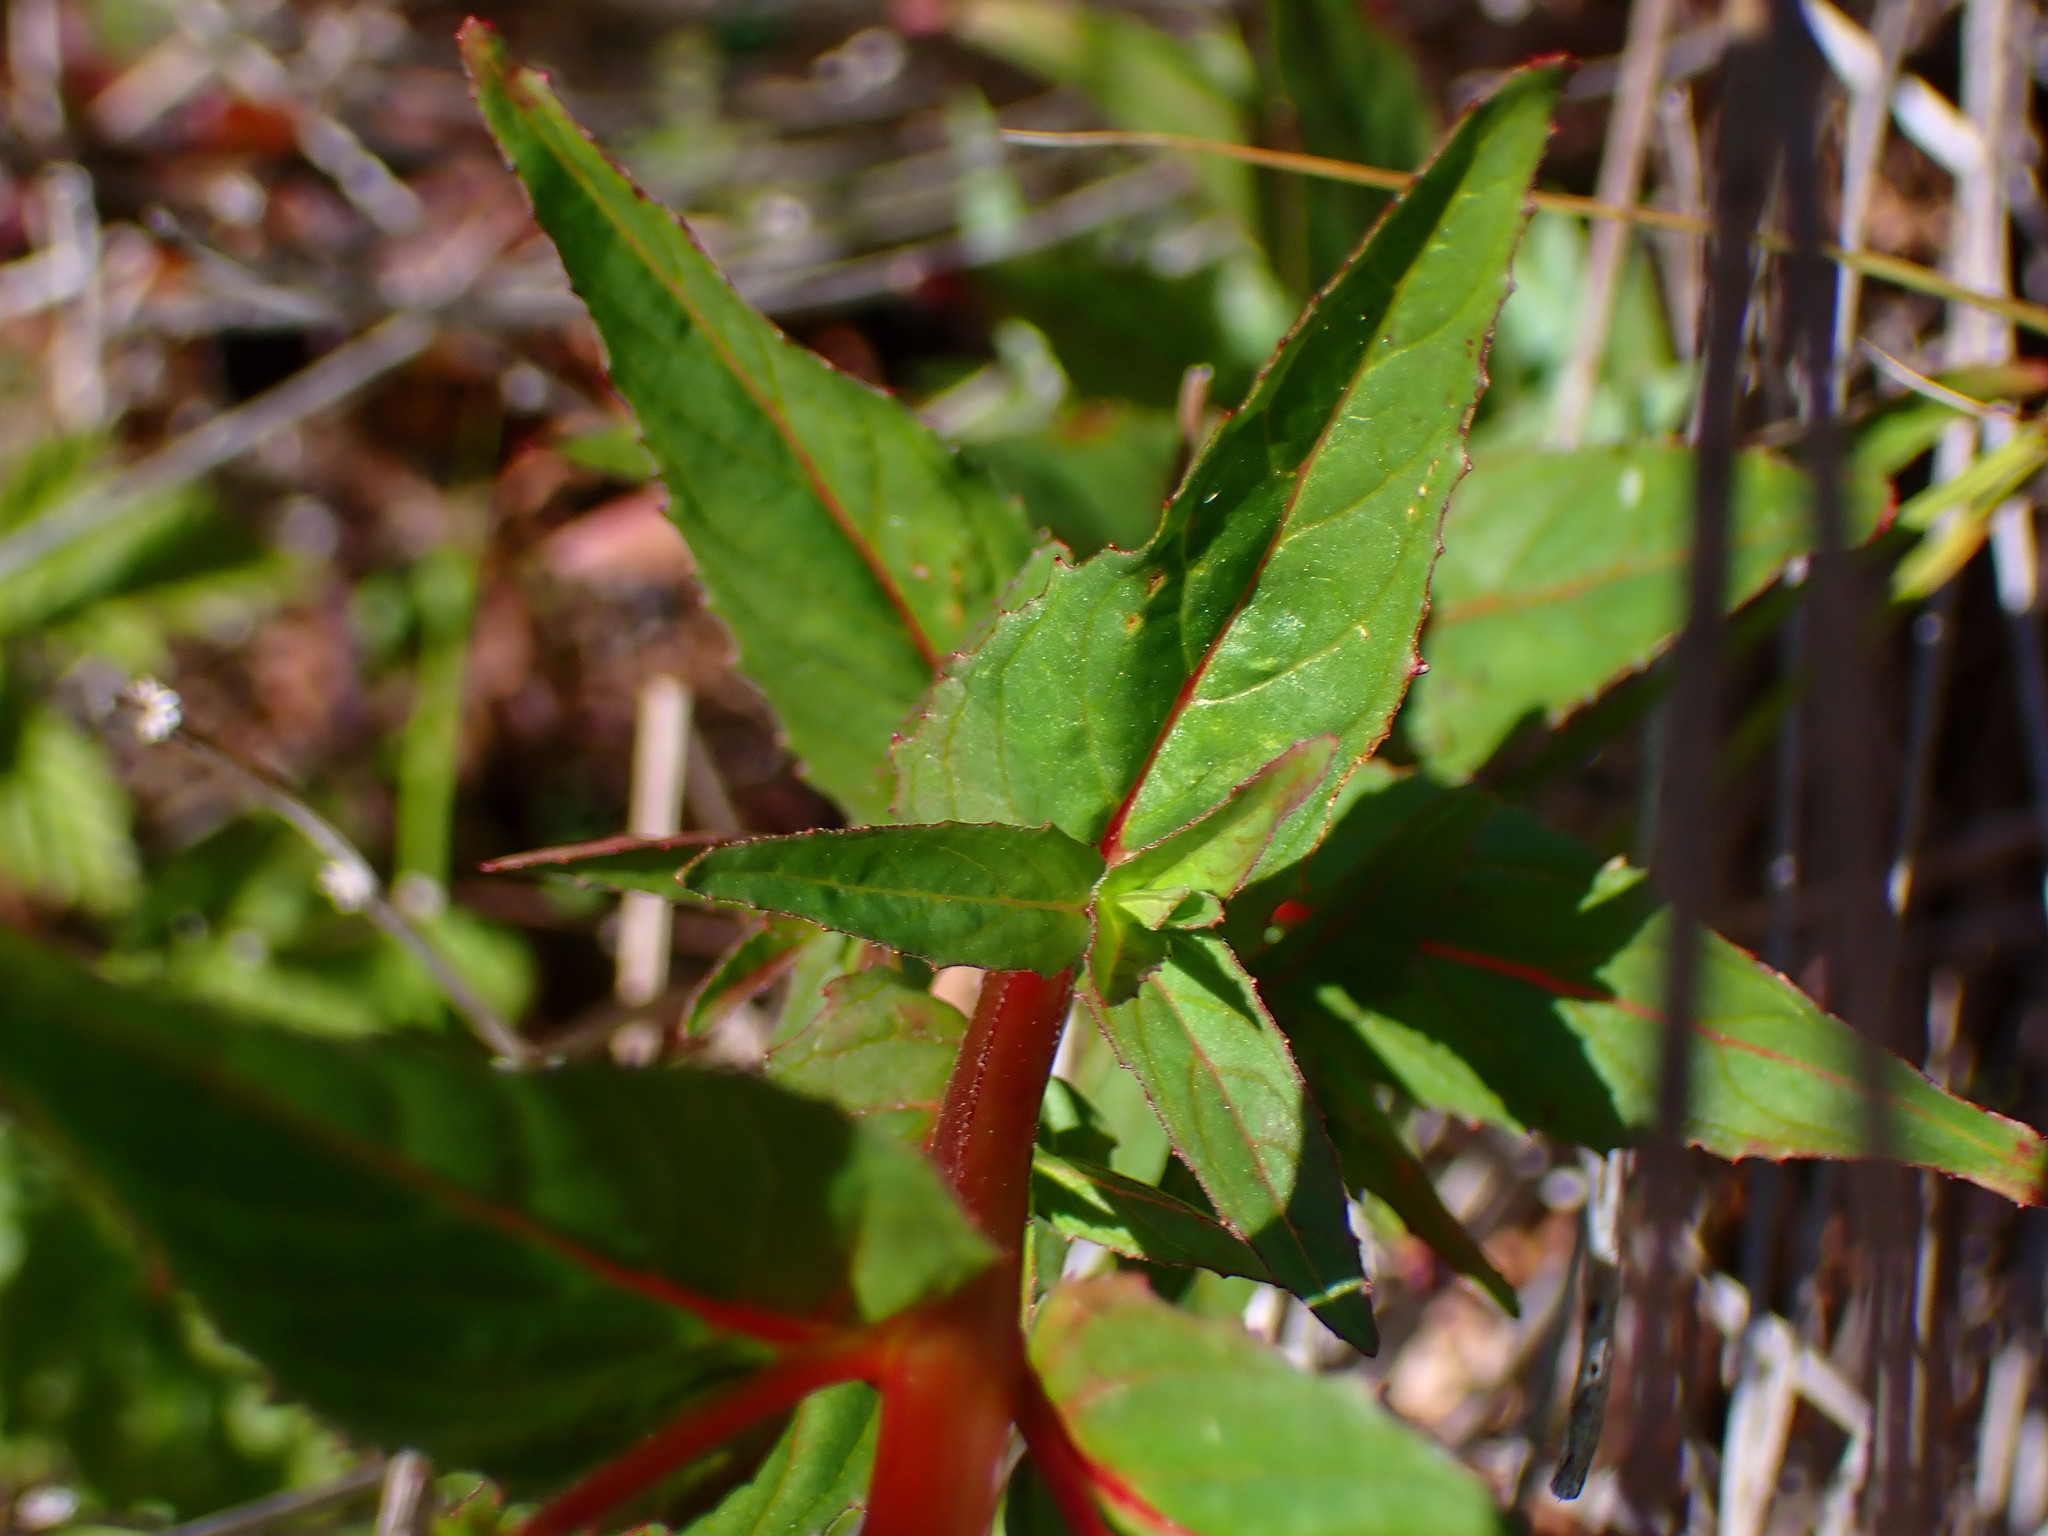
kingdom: Plantae
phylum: Tracheophyta
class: Magnoliopsida
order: Myrtales
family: Onagraceae
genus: Epilobium
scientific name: Epilobium ciliatum
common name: American willowherb
